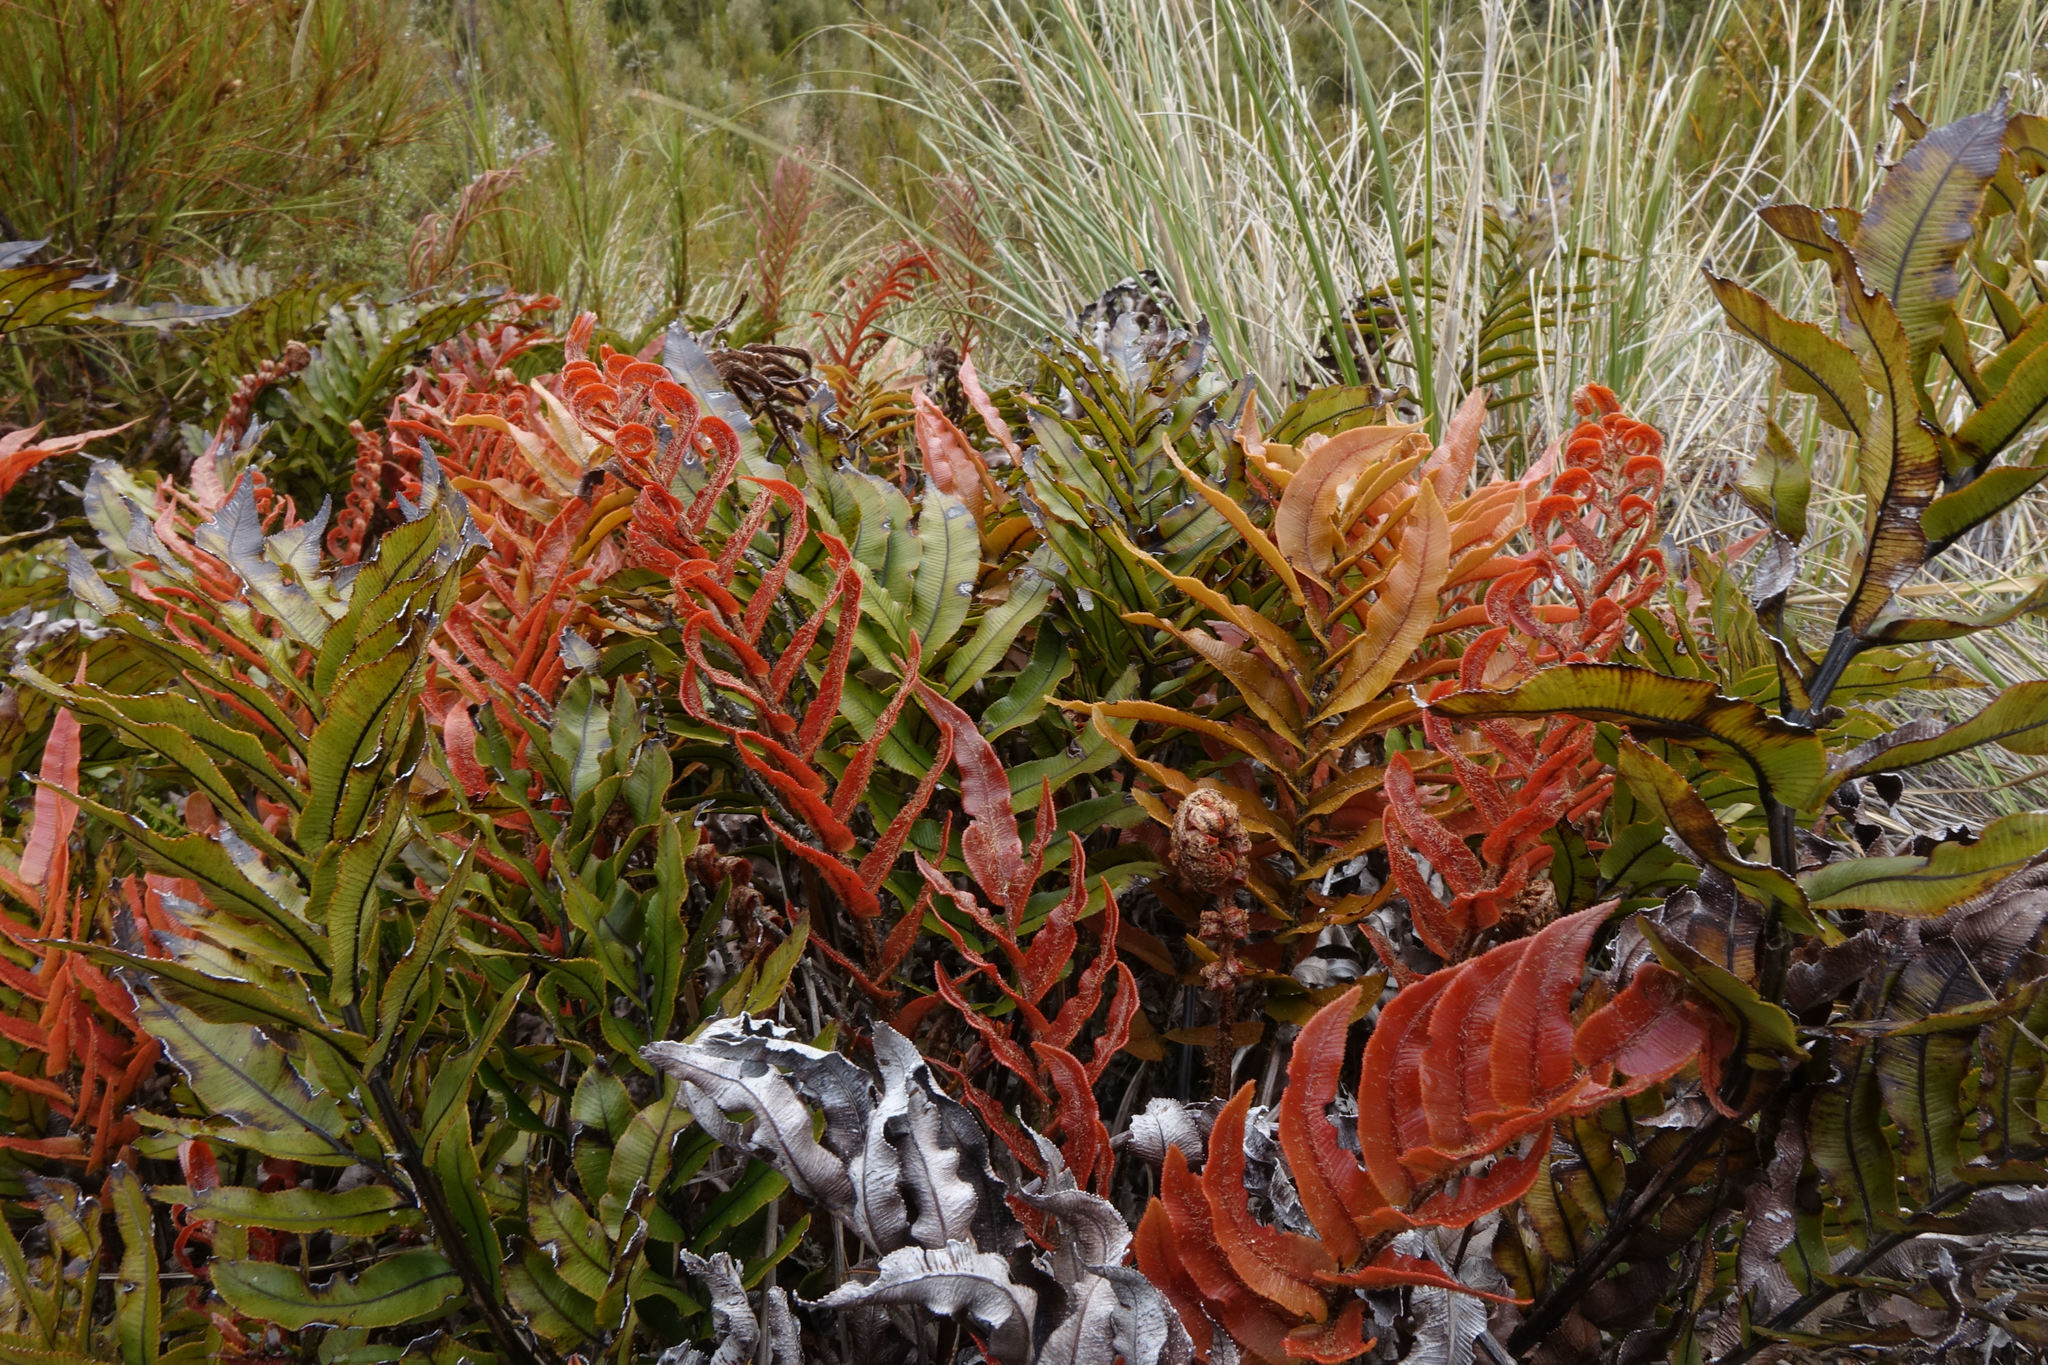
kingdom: Plantae
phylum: Tracheophyta
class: Polypodiopsida
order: Polypodiales
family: Blechnaceae
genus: Parablechnum
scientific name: Parablechnum montanum
